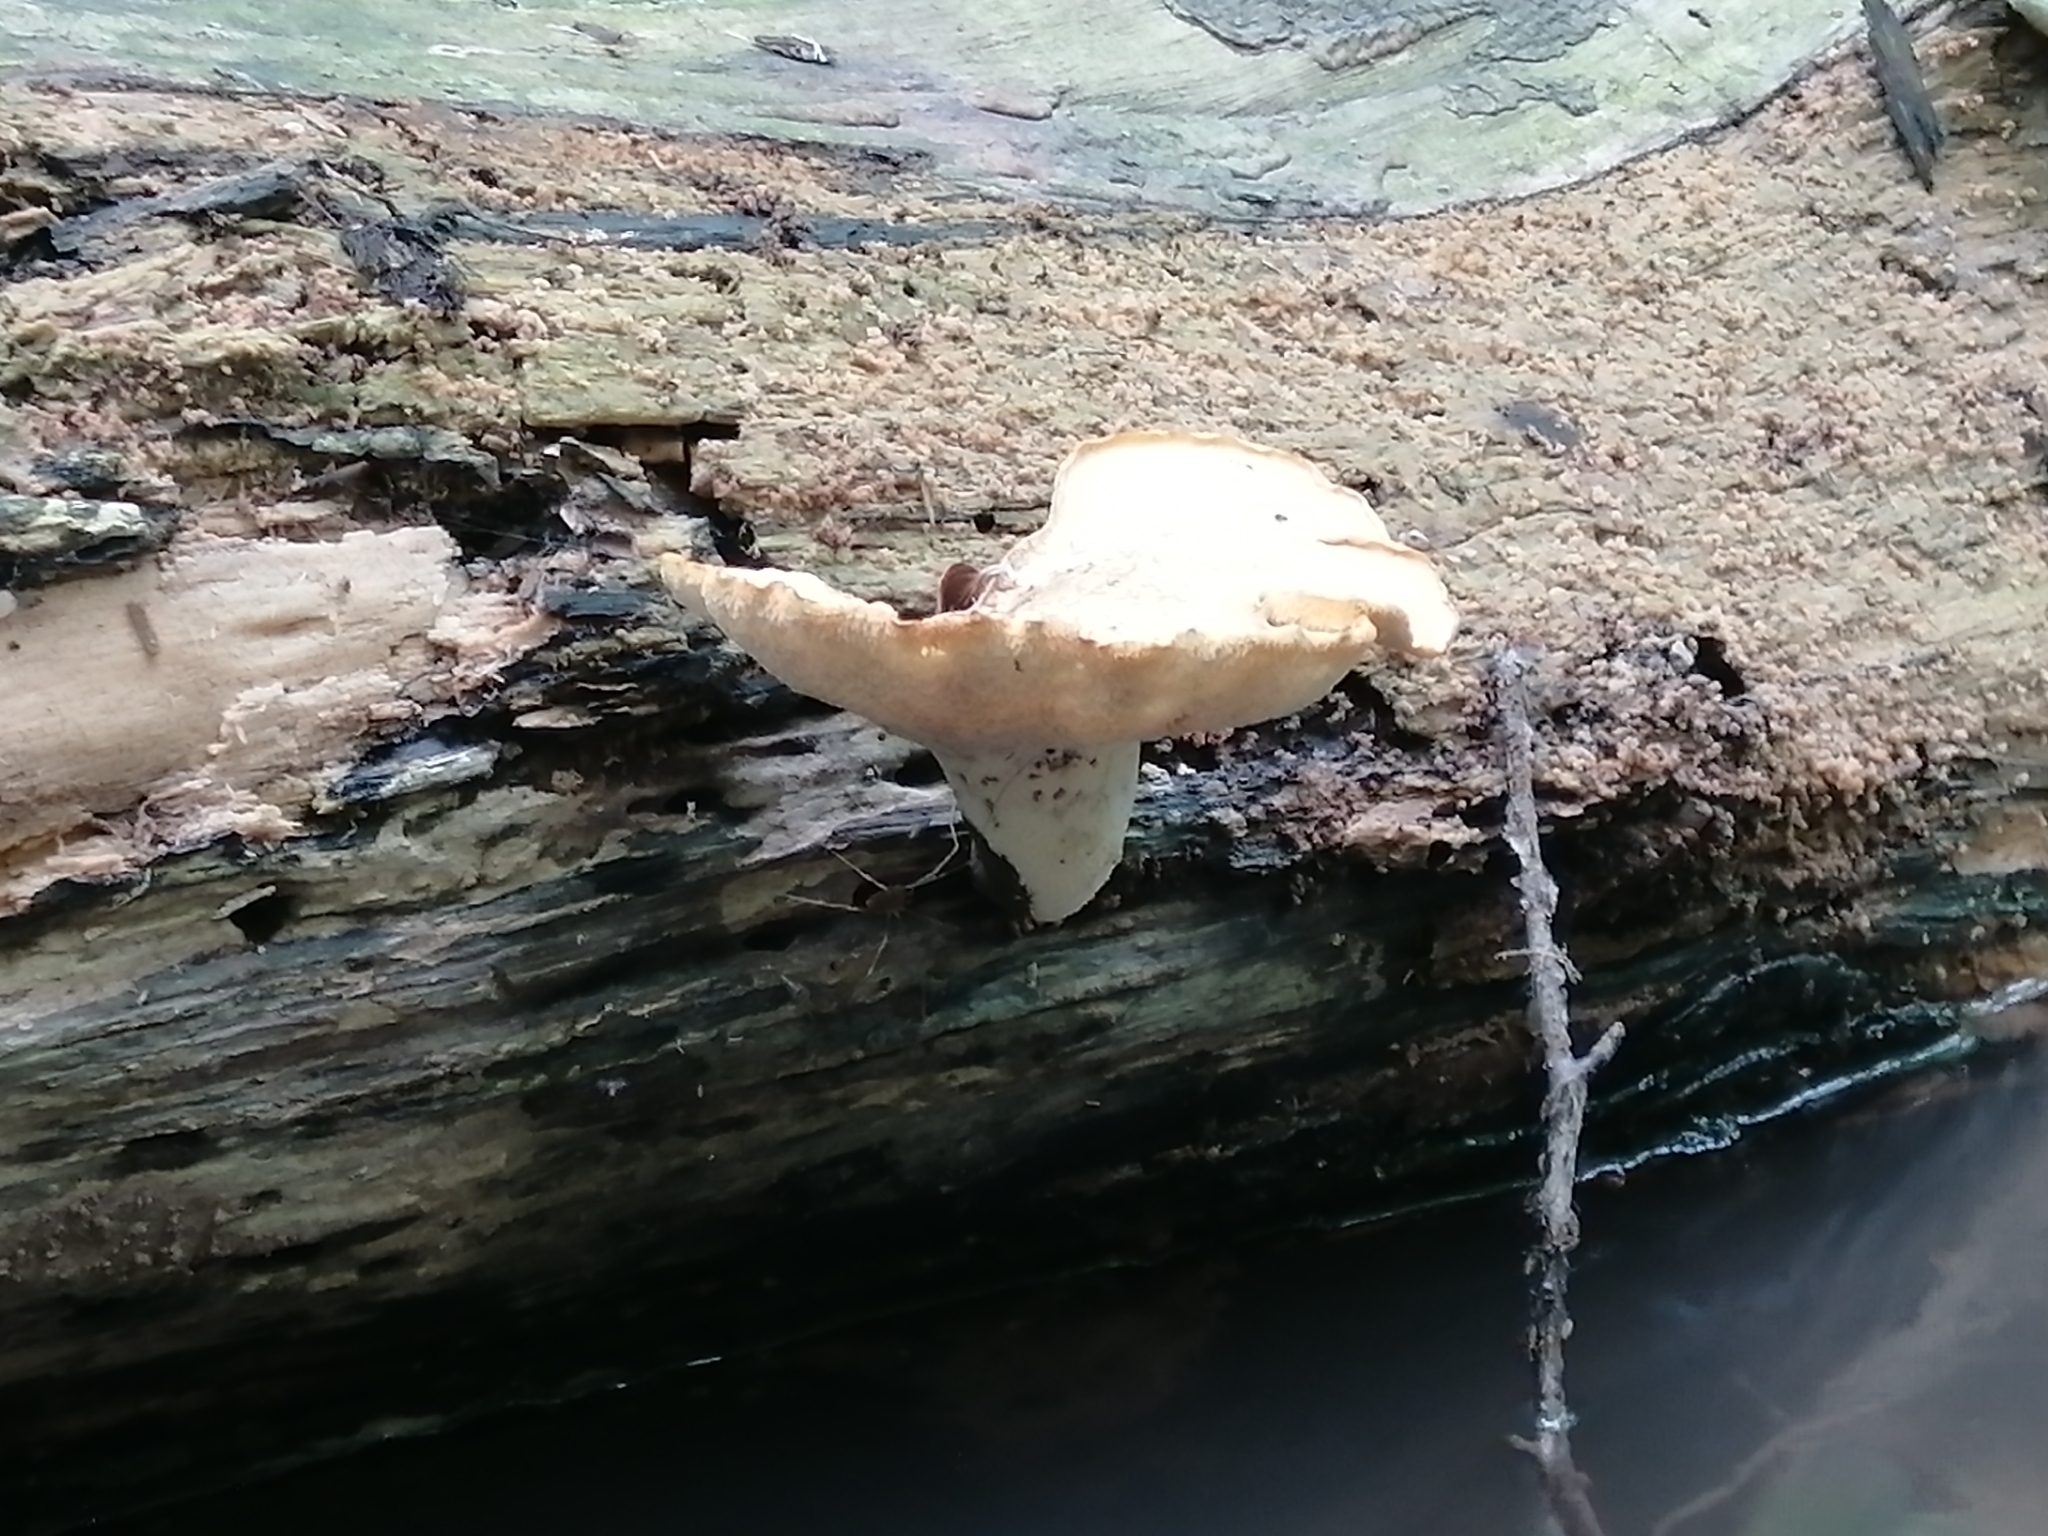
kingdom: Fungi
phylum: Basidiomycota
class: Agaricomycetes
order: Polyporales
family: Polyporaceae
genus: Cerioporus
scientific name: Cerioporus squamosus
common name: Dryad's saddle
